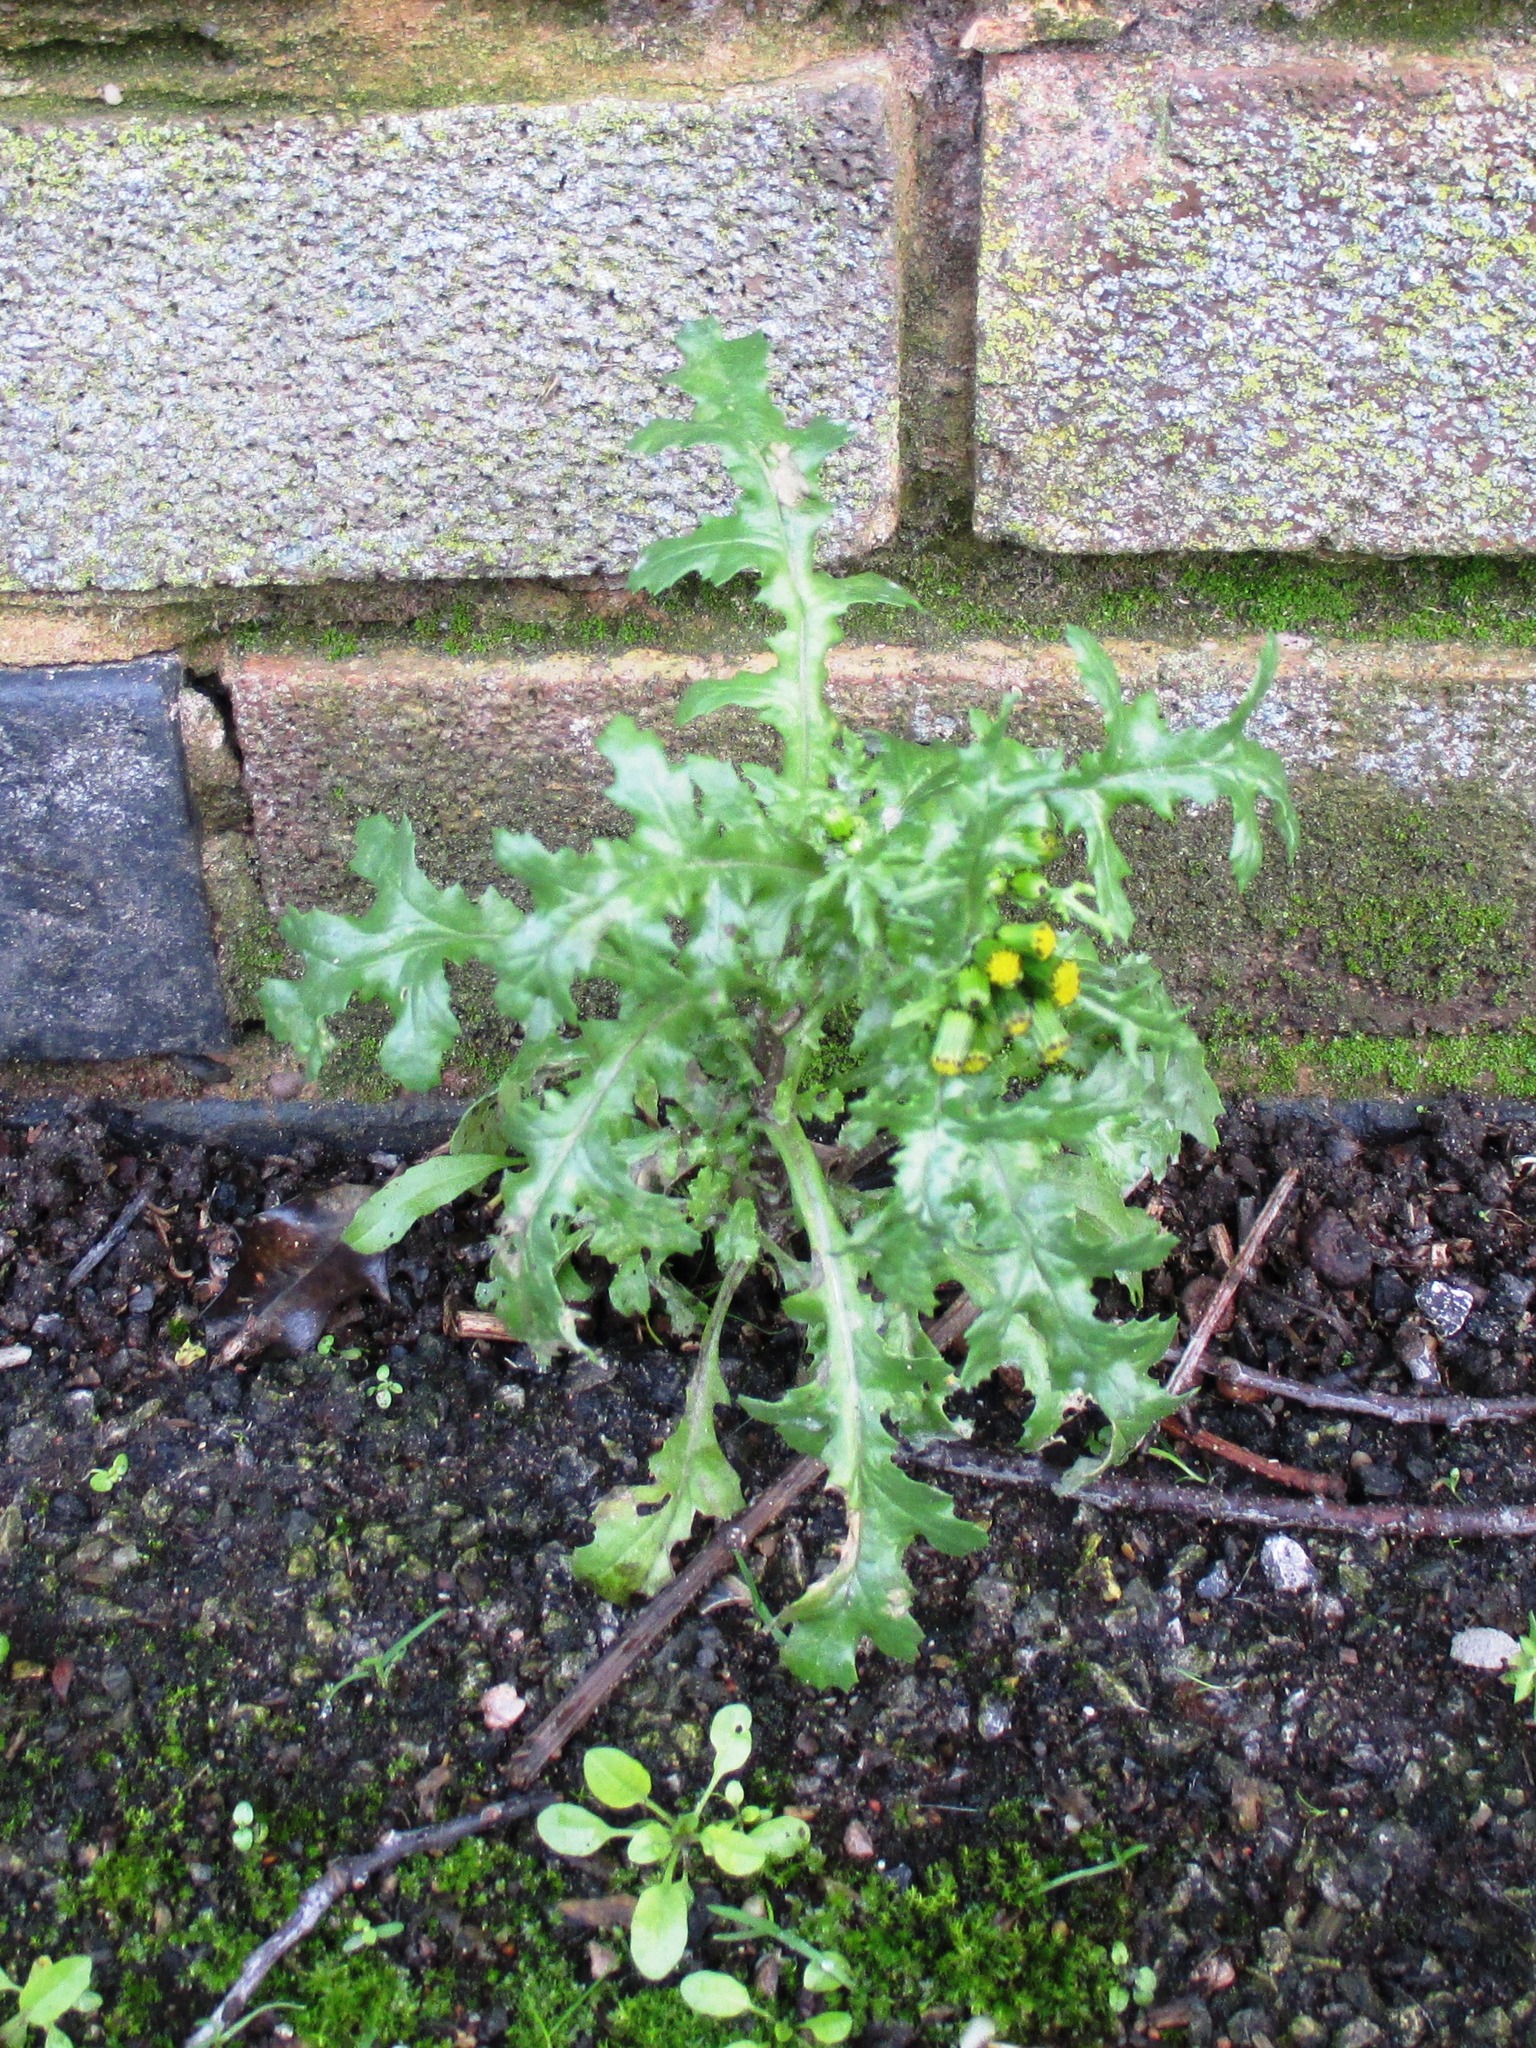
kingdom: Plantae
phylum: Tracheophyta
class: Magnoliopsida
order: Asterales
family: Asteraceae
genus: Senecio
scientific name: Senecio vulgaris
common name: Old-man-in-the-spring
